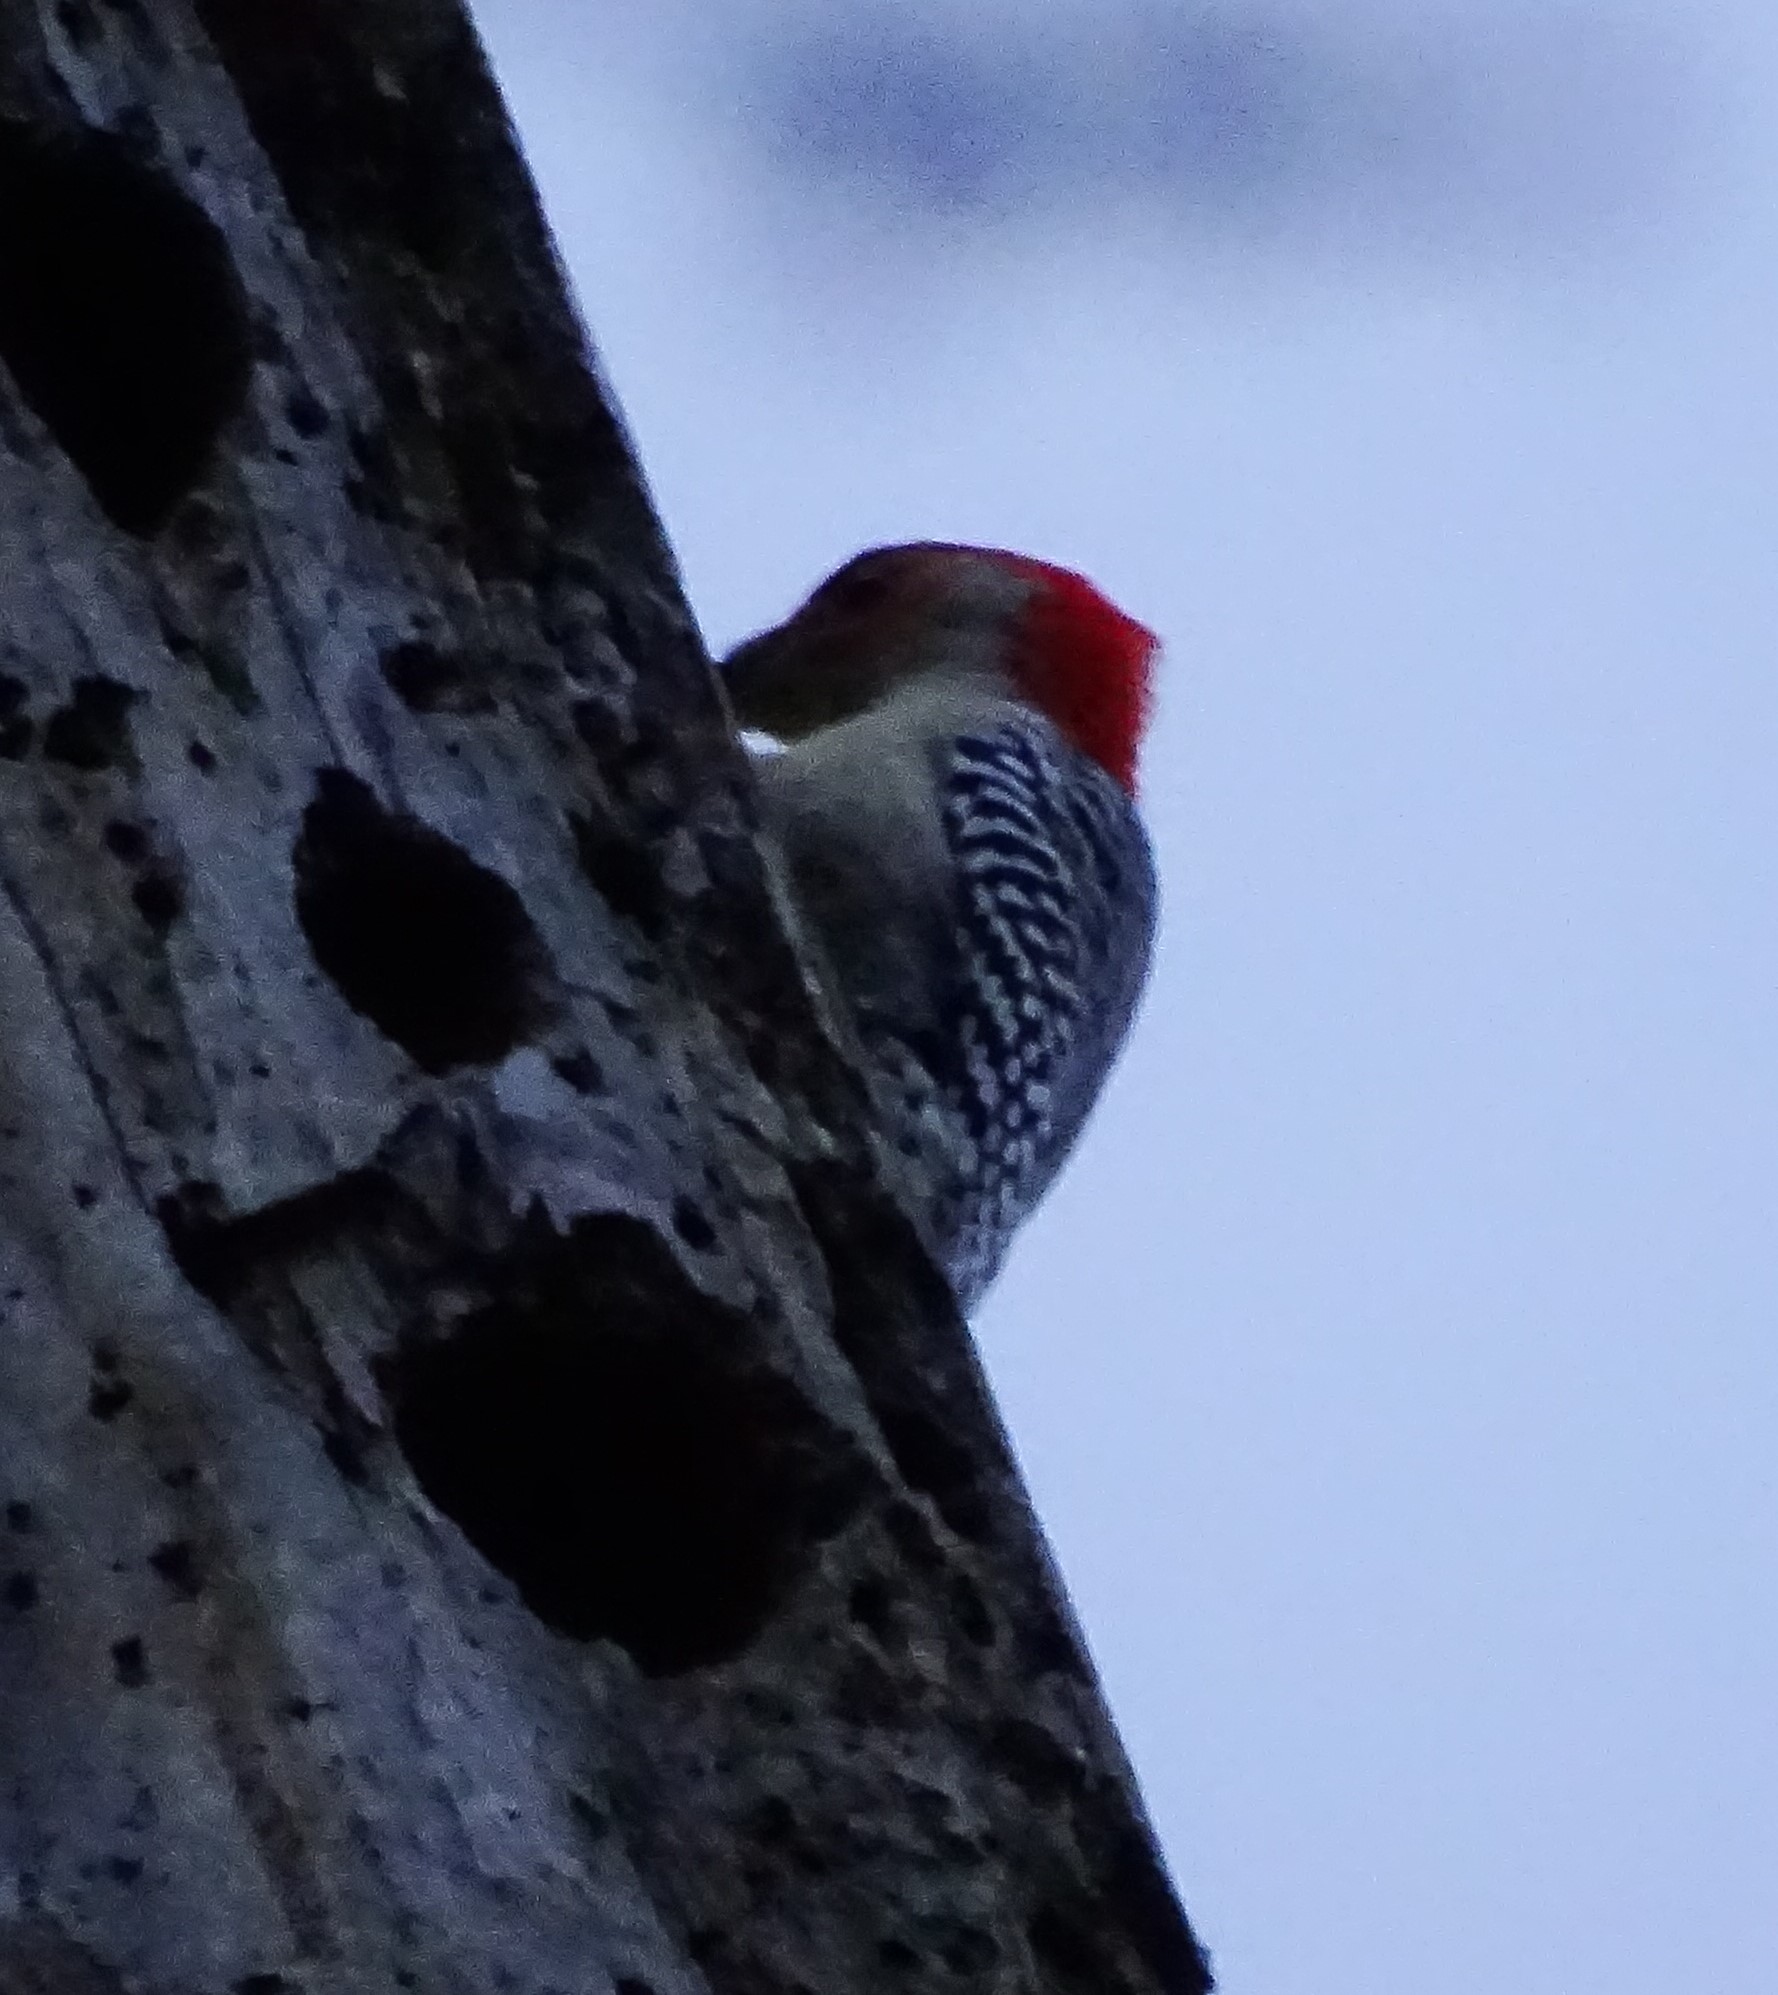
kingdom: Animalia
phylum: Chordata
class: Aves
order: Piciformes
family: Picidae
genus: Melanerpes
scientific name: Melanerpes carolinus
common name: Red-bellied woodpecker
